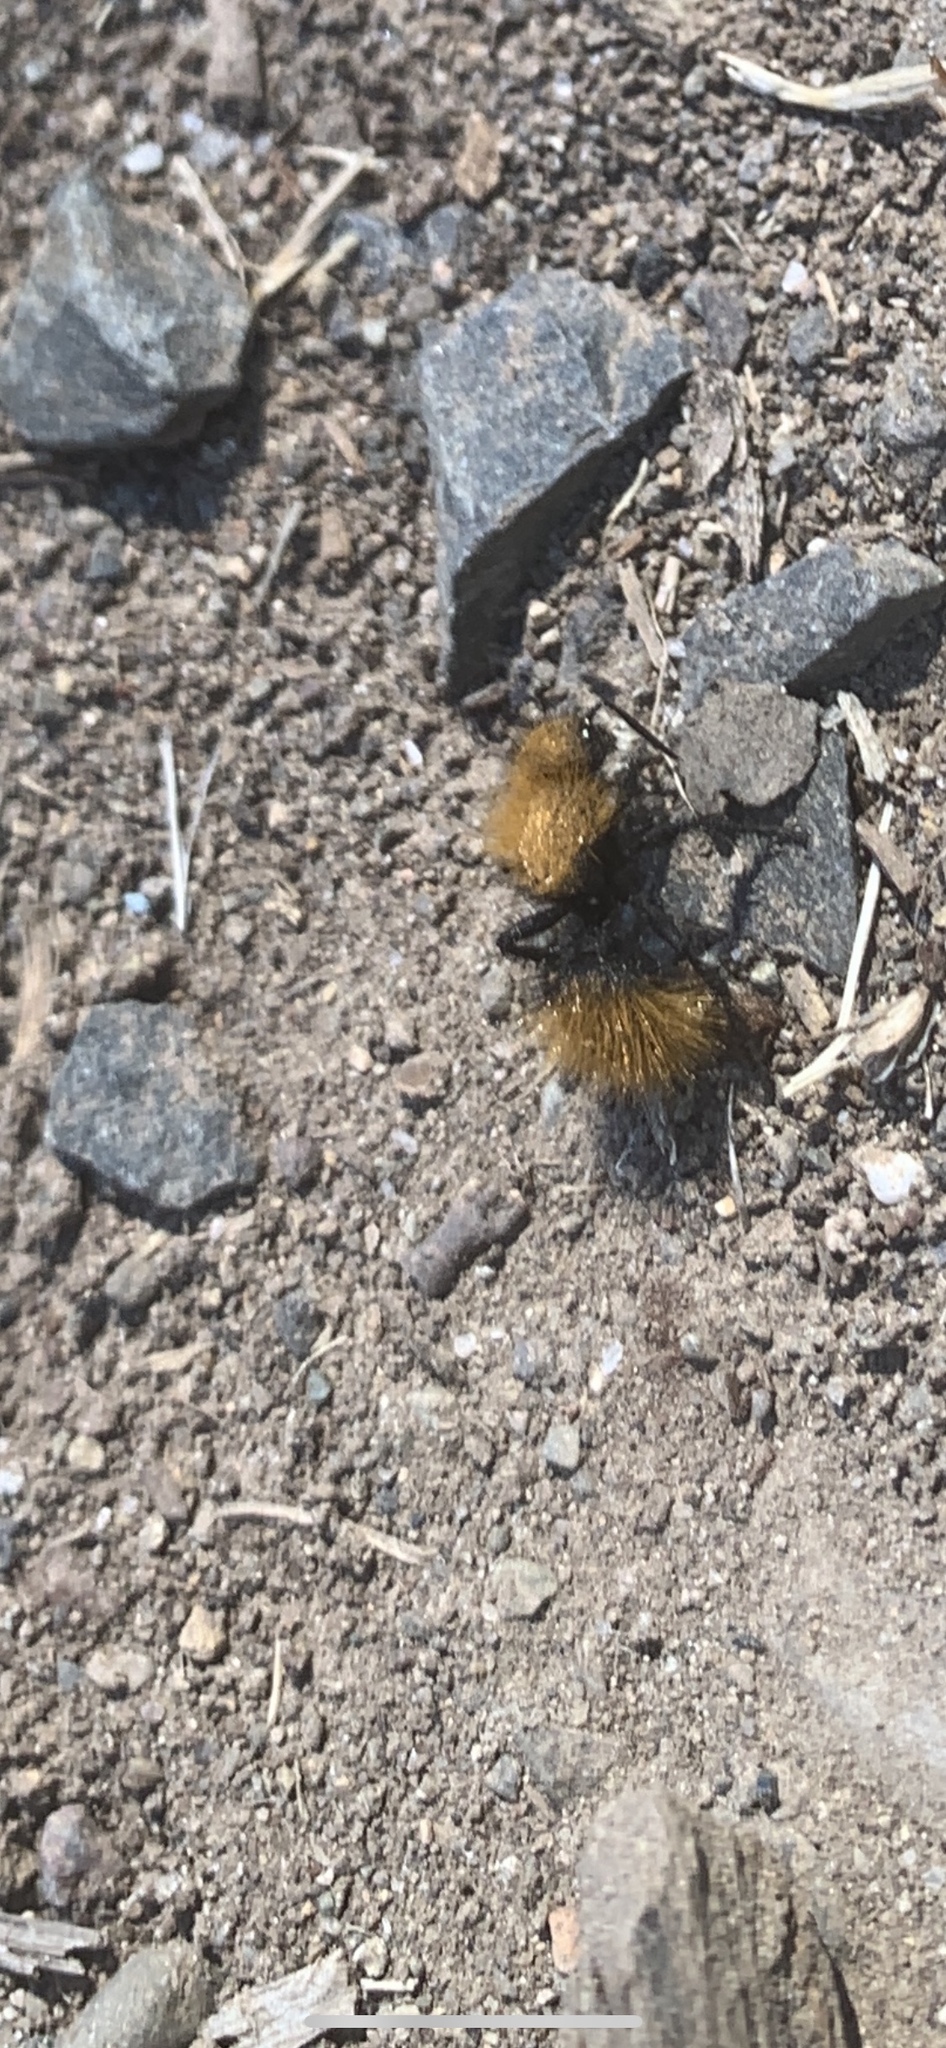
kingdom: Animalia
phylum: Arthropoda
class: Insecta
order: Hymenoptera
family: Mutillidae
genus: Dasymutilla
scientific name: Dasymutilla
